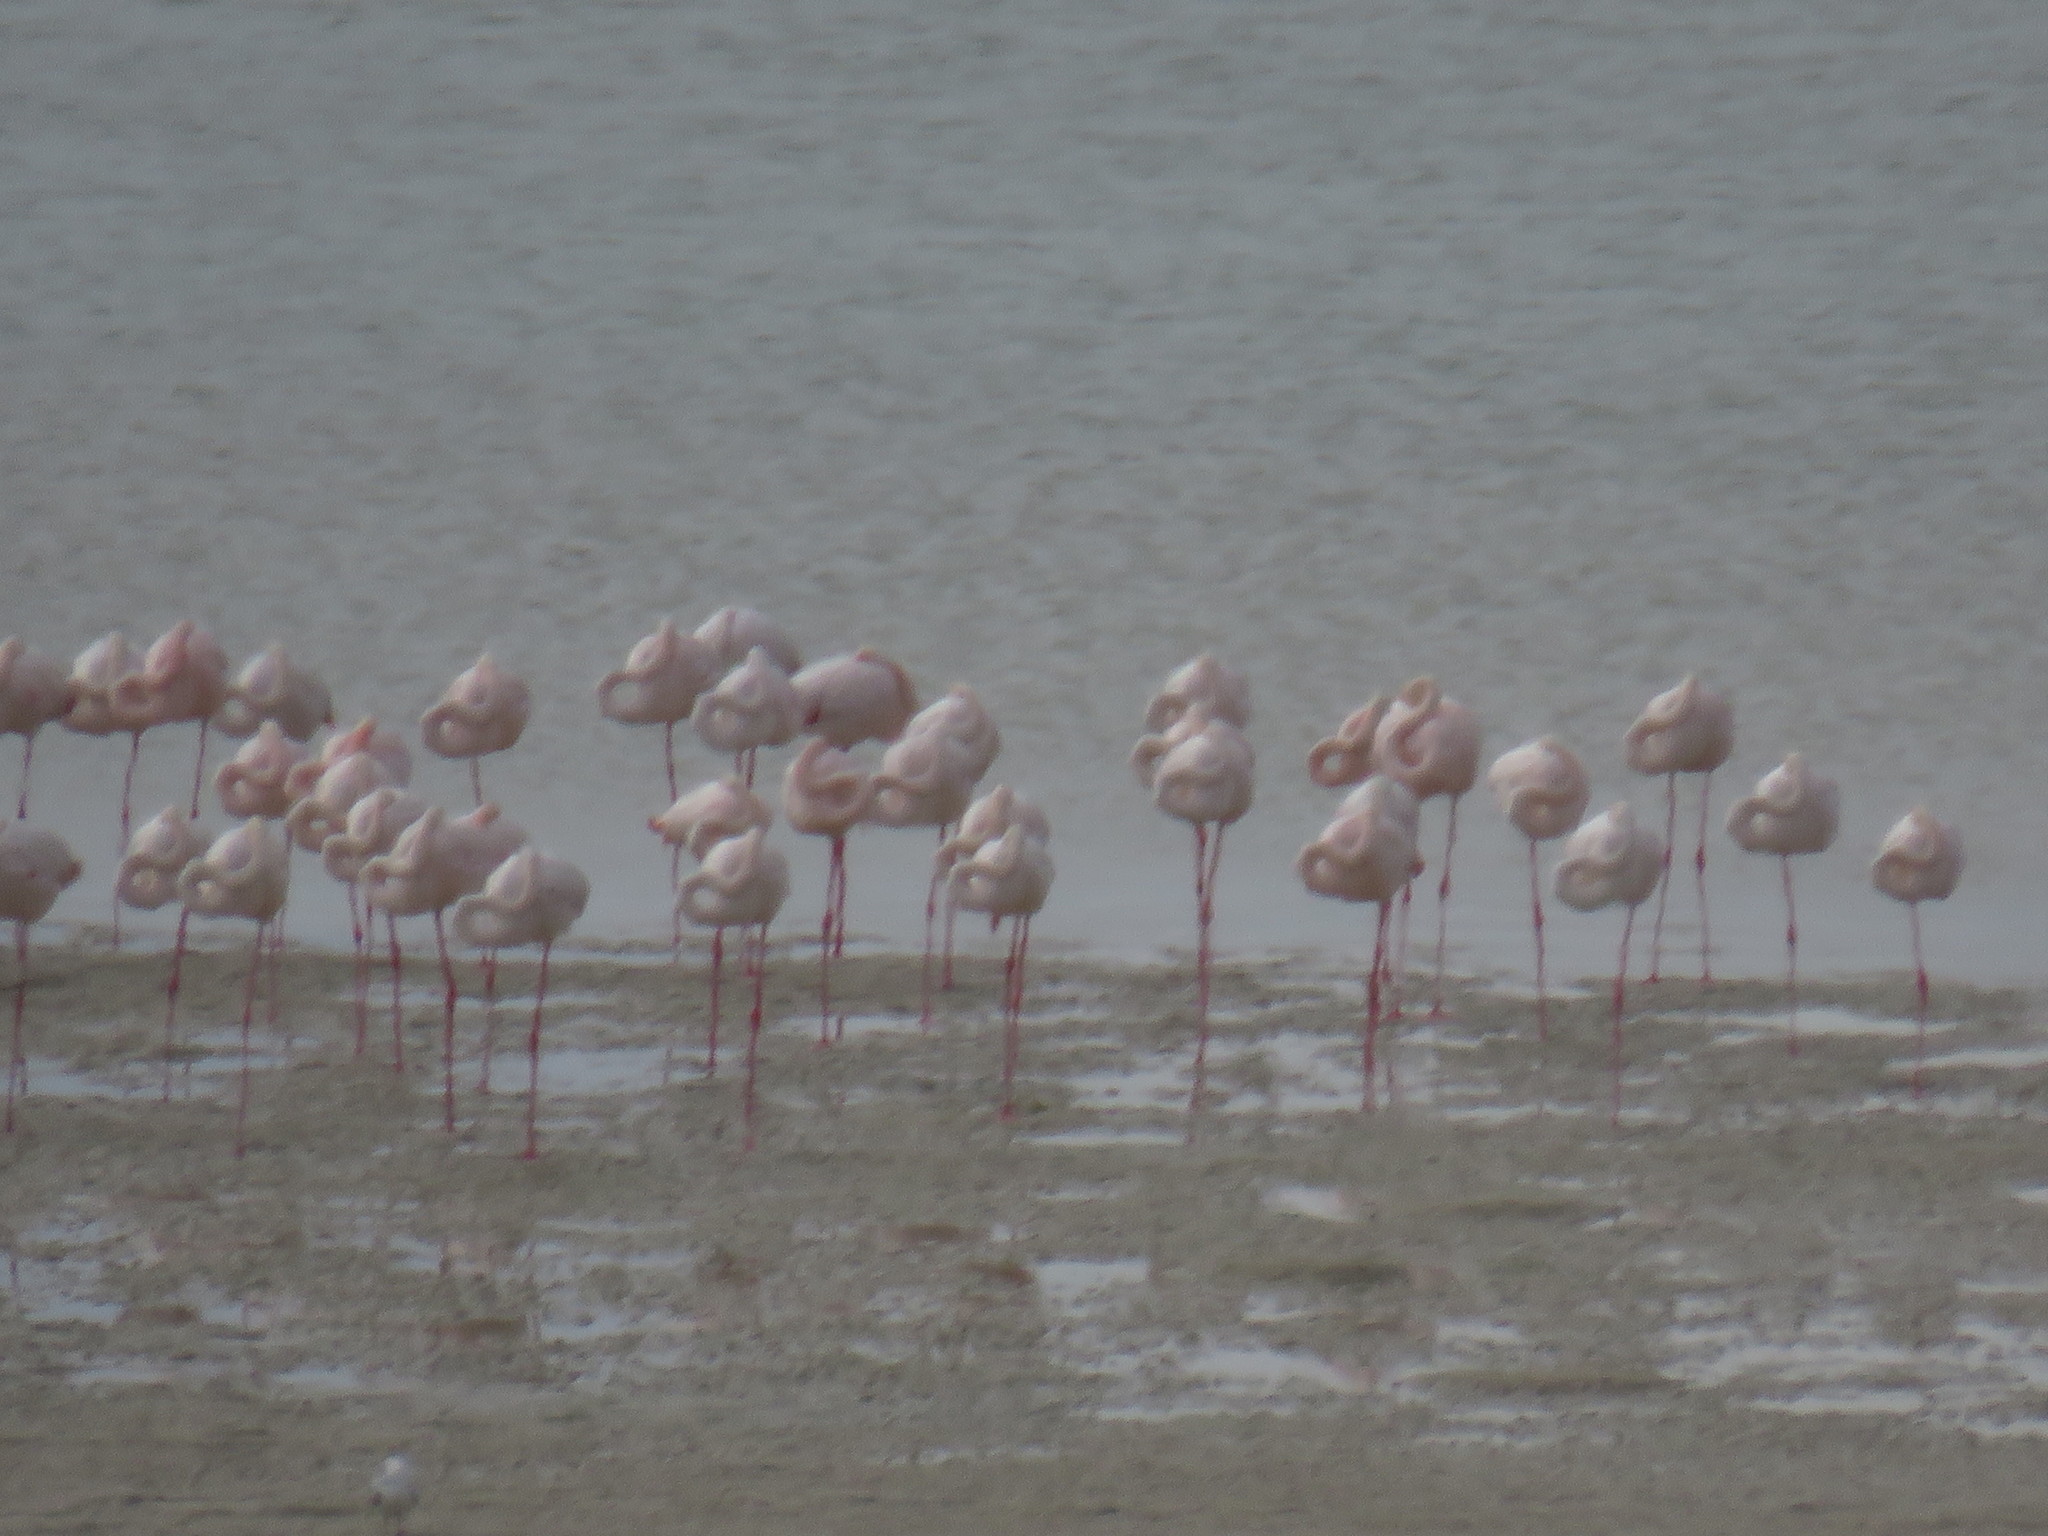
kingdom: Animalia
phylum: Chordata
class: Aves
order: Phoenicopteriformes
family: Phoenicopteridae
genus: Phoenicopterus
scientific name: Phoenicopterus roseus
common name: Greater flamingo
